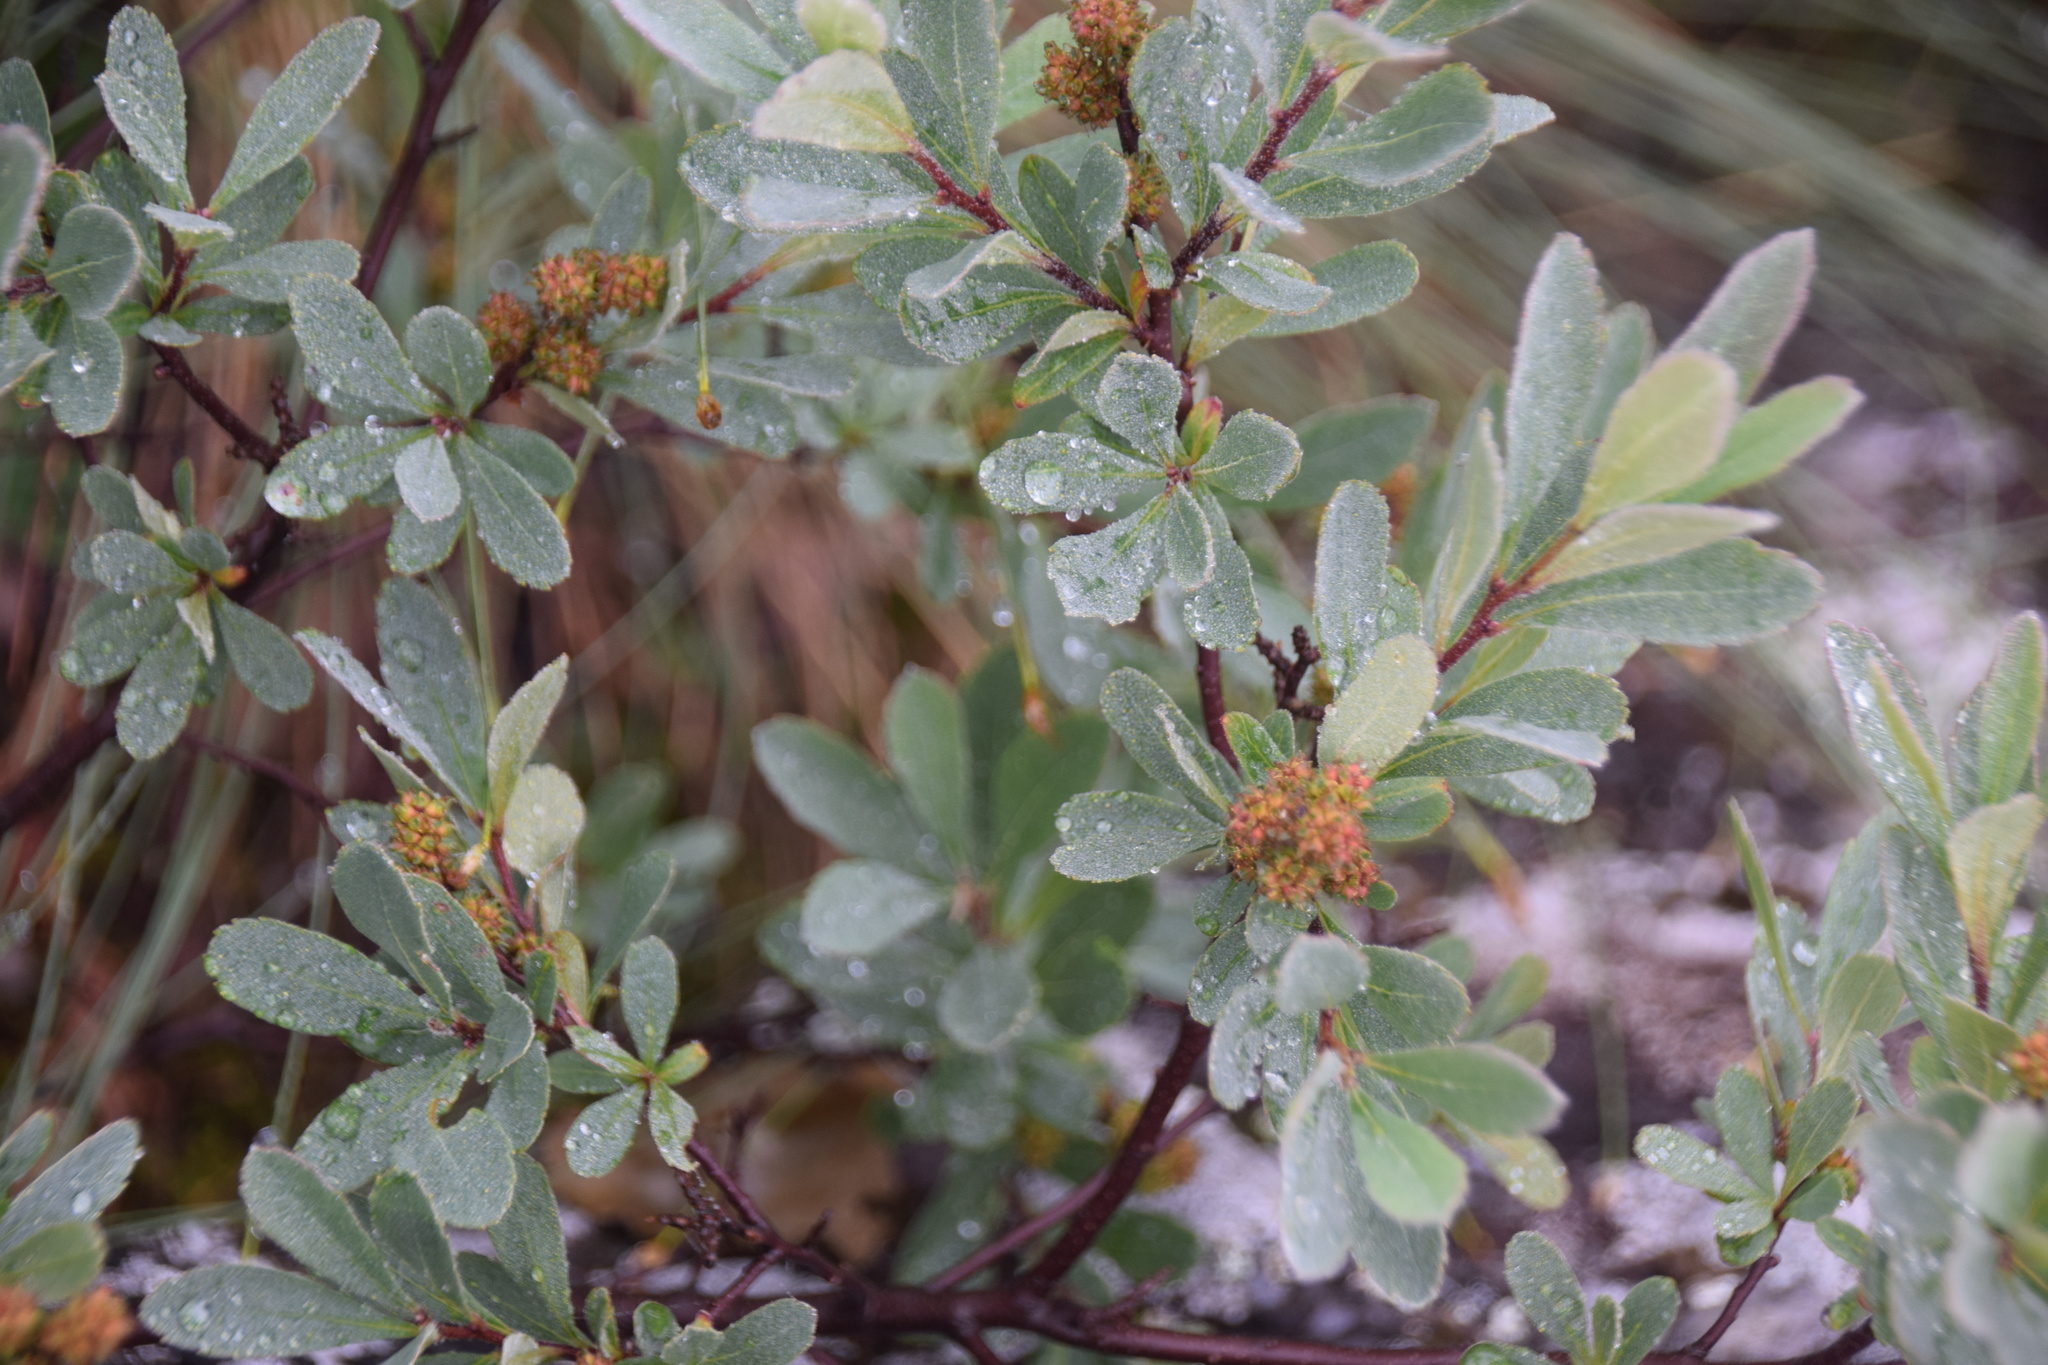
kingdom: Plantae
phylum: Tracheophyta
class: Magnoliopsida
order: Fagales
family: Myricaceae
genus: Myrica
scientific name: Myrica gale
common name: Sweet gale
